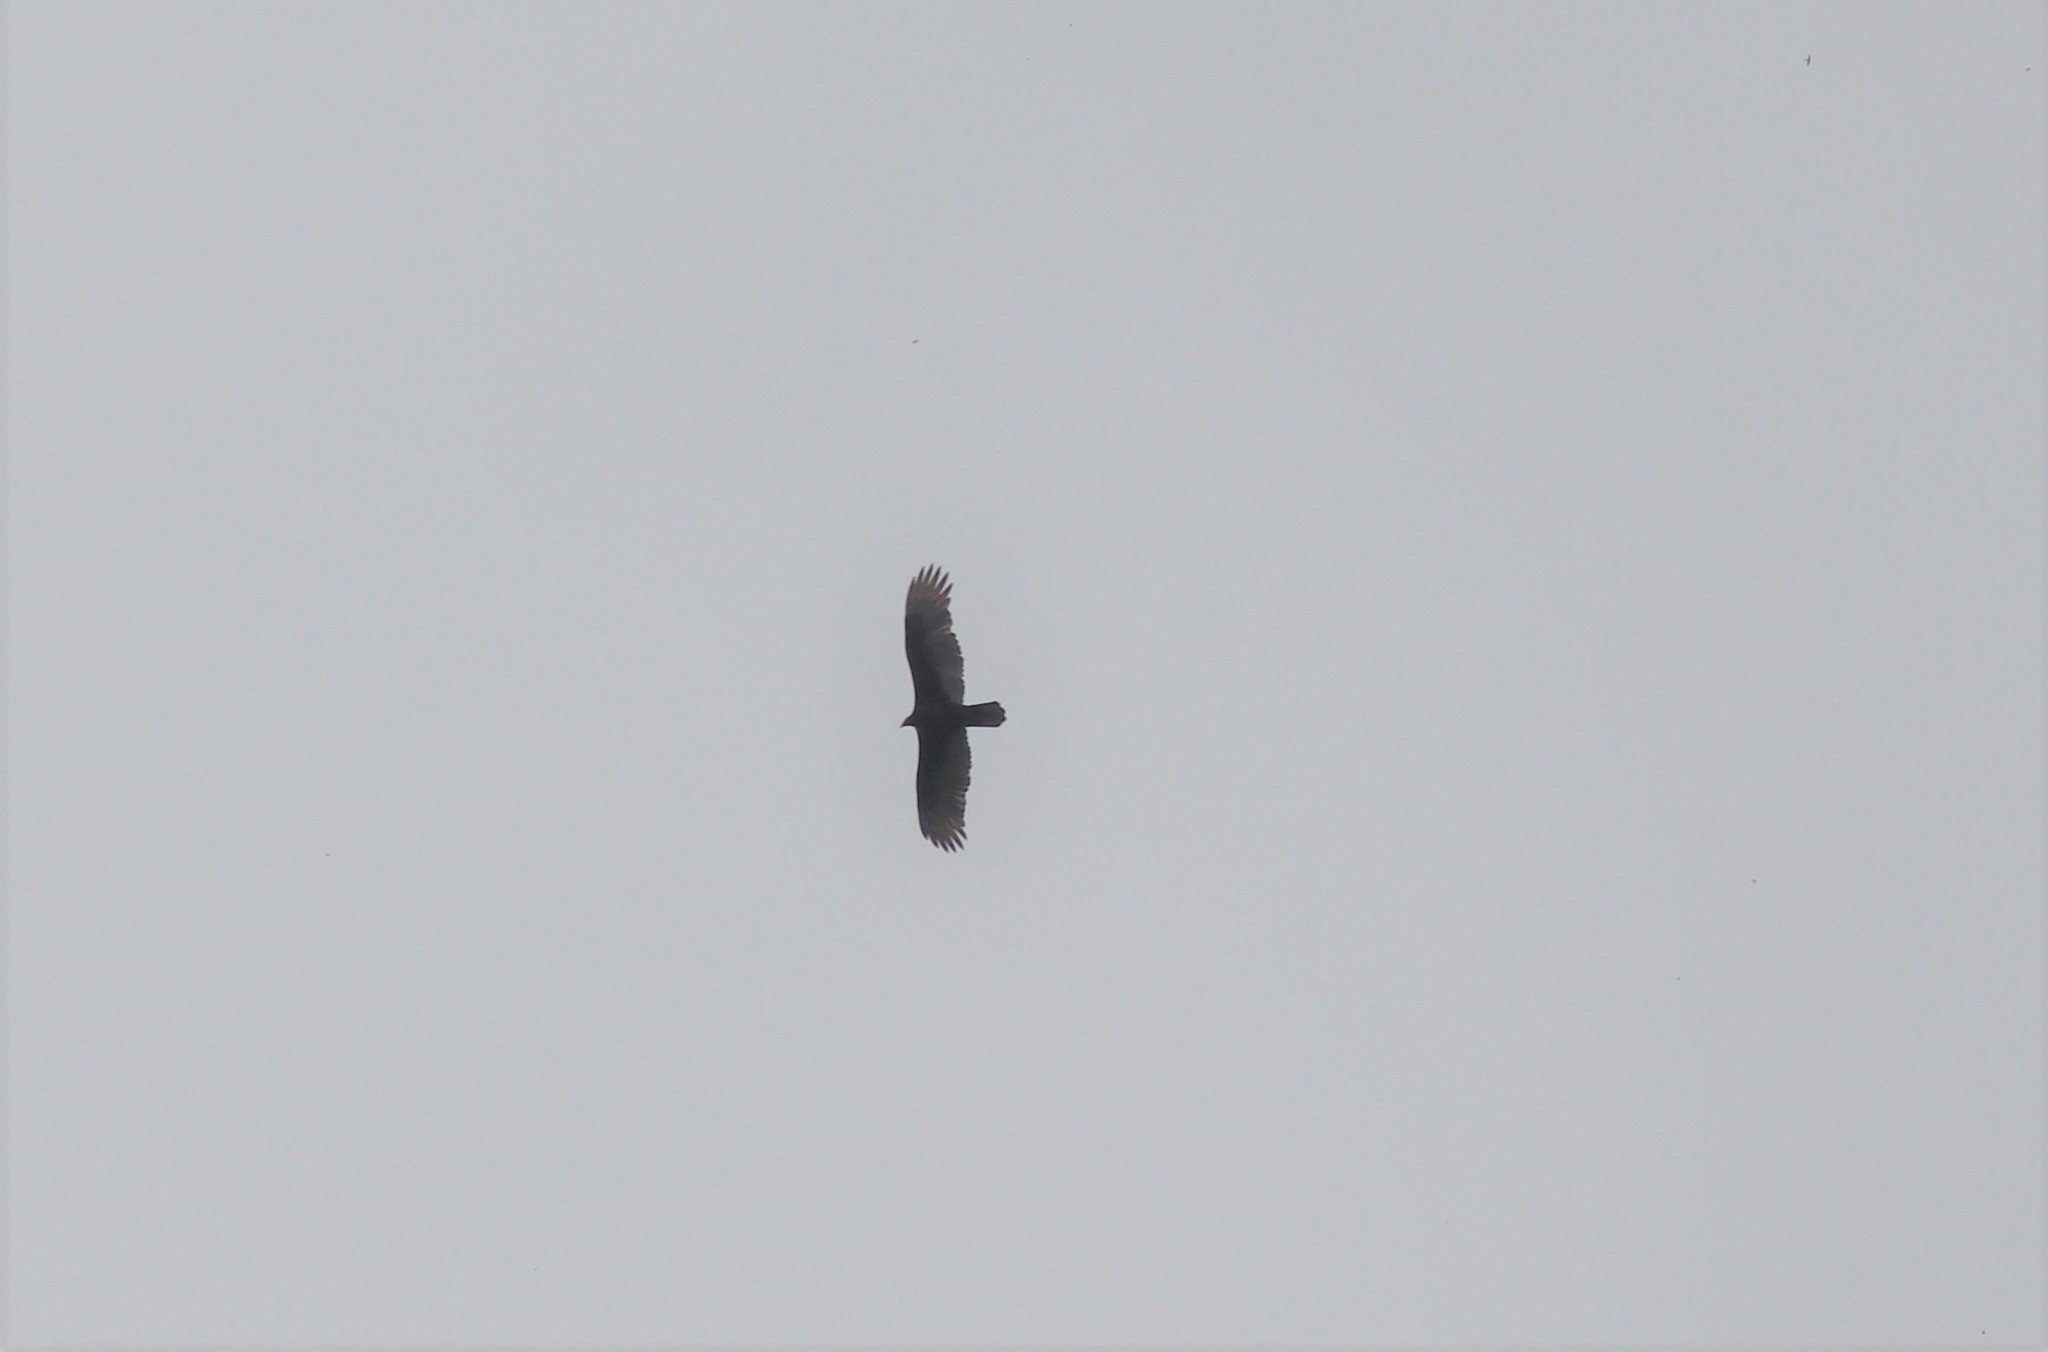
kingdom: Animalia
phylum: Chordata
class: Aves
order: Accipitriformes
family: Cathartidae
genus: Cathartes
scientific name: Cathartes aura
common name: Turkey vulture
